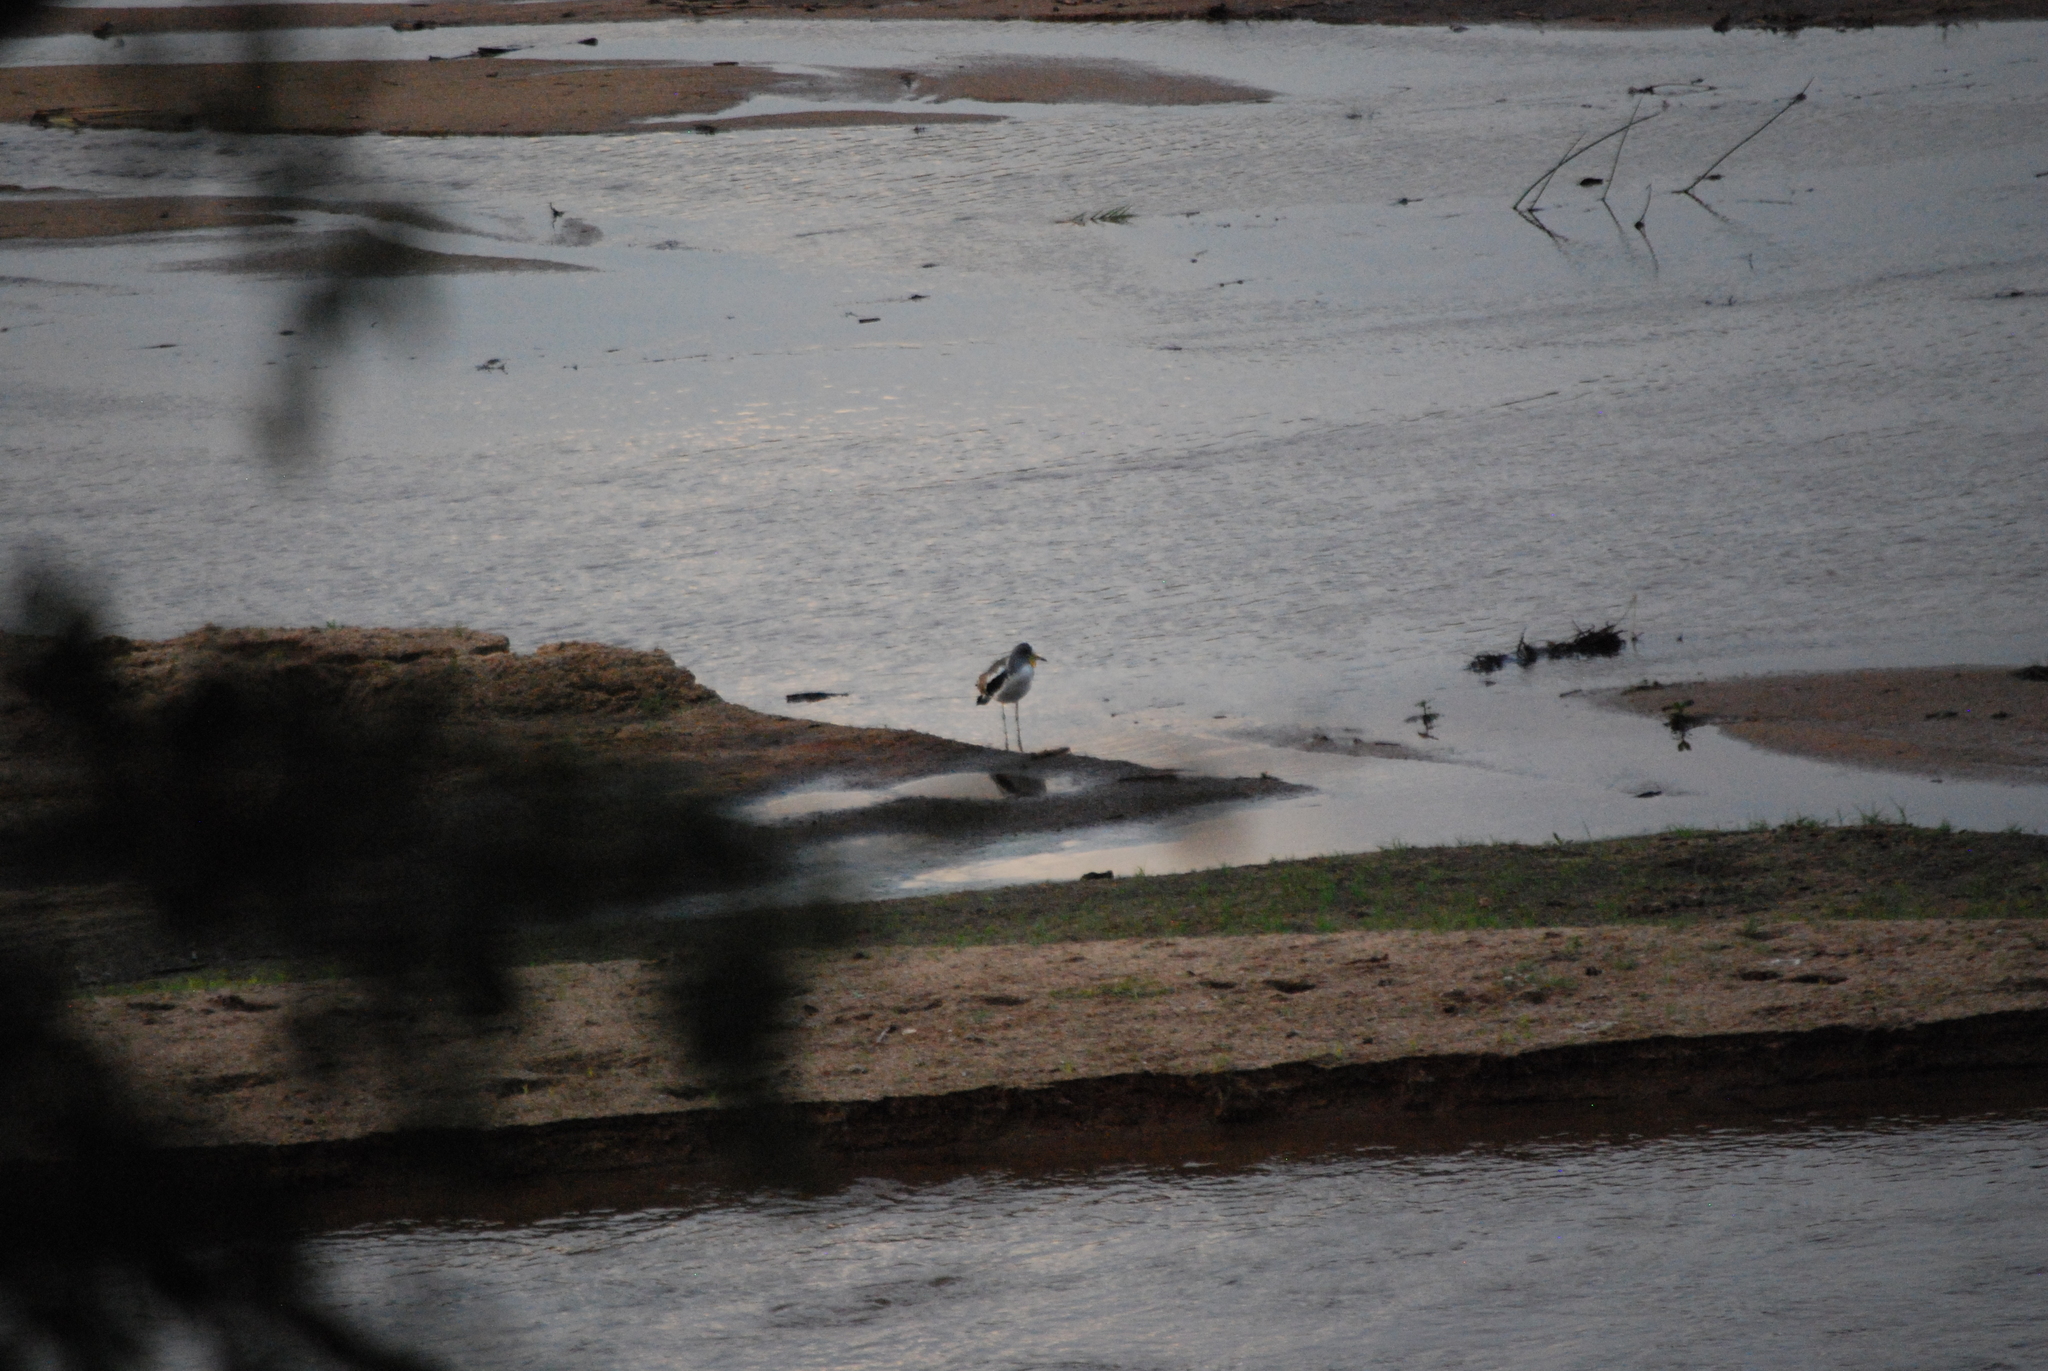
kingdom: Animalia
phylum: Chordata
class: Aves
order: Charadriiformes
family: Charadriidae
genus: Vanellus
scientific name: Vanellus albiceps
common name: White-crowned lapwing
